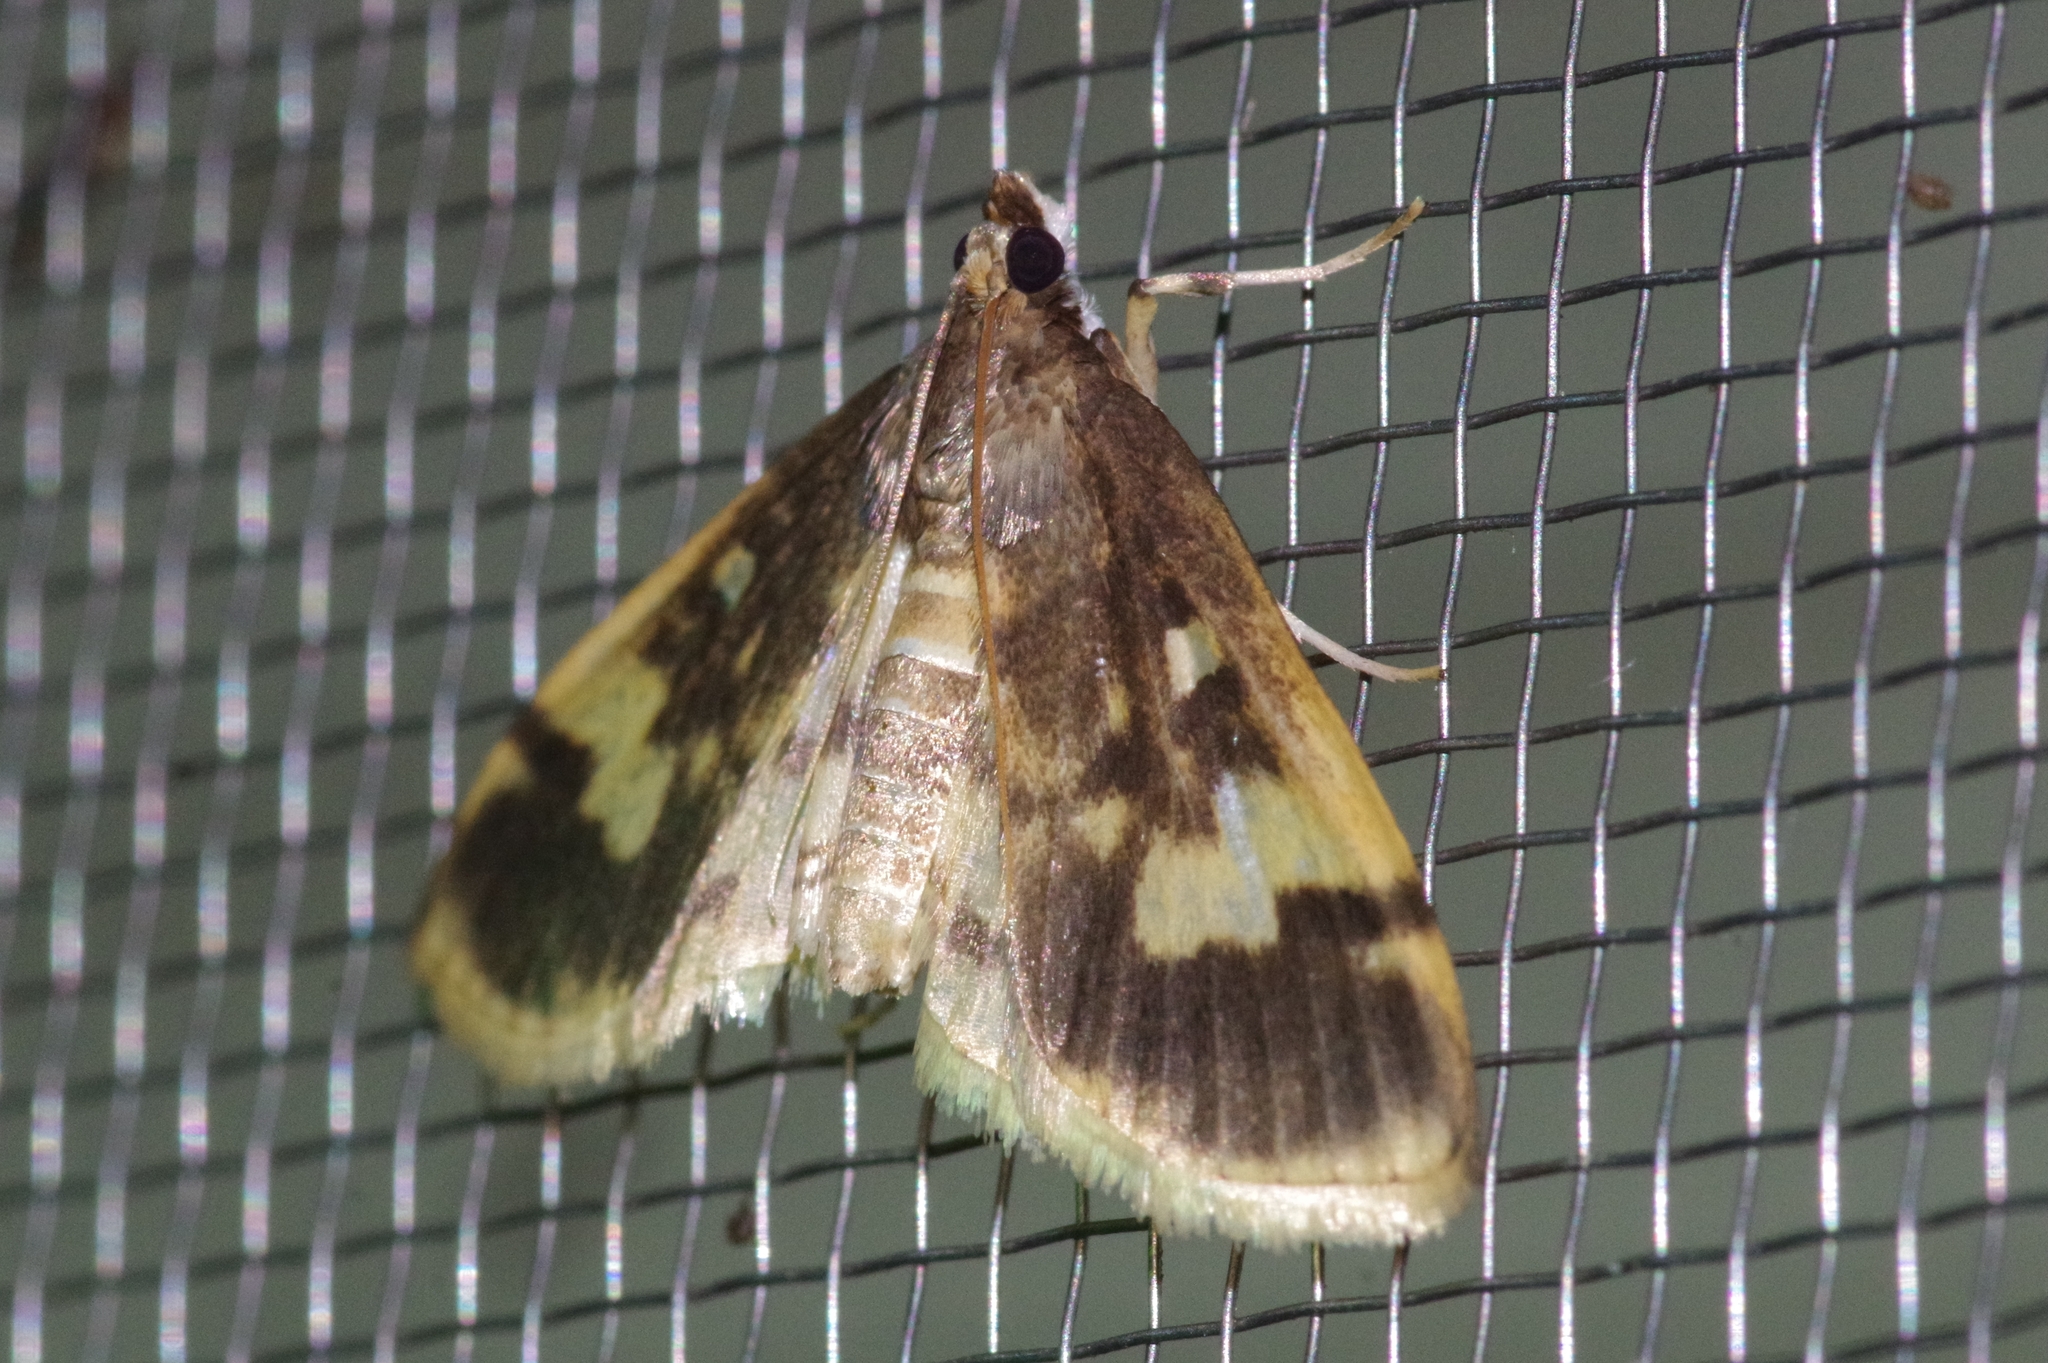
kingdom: Animalia
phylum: Arthropoda
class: Insecta
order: Lepidoptera
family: Crambidae
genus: Pseudebulea
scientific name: Pseudebulea fentoni
